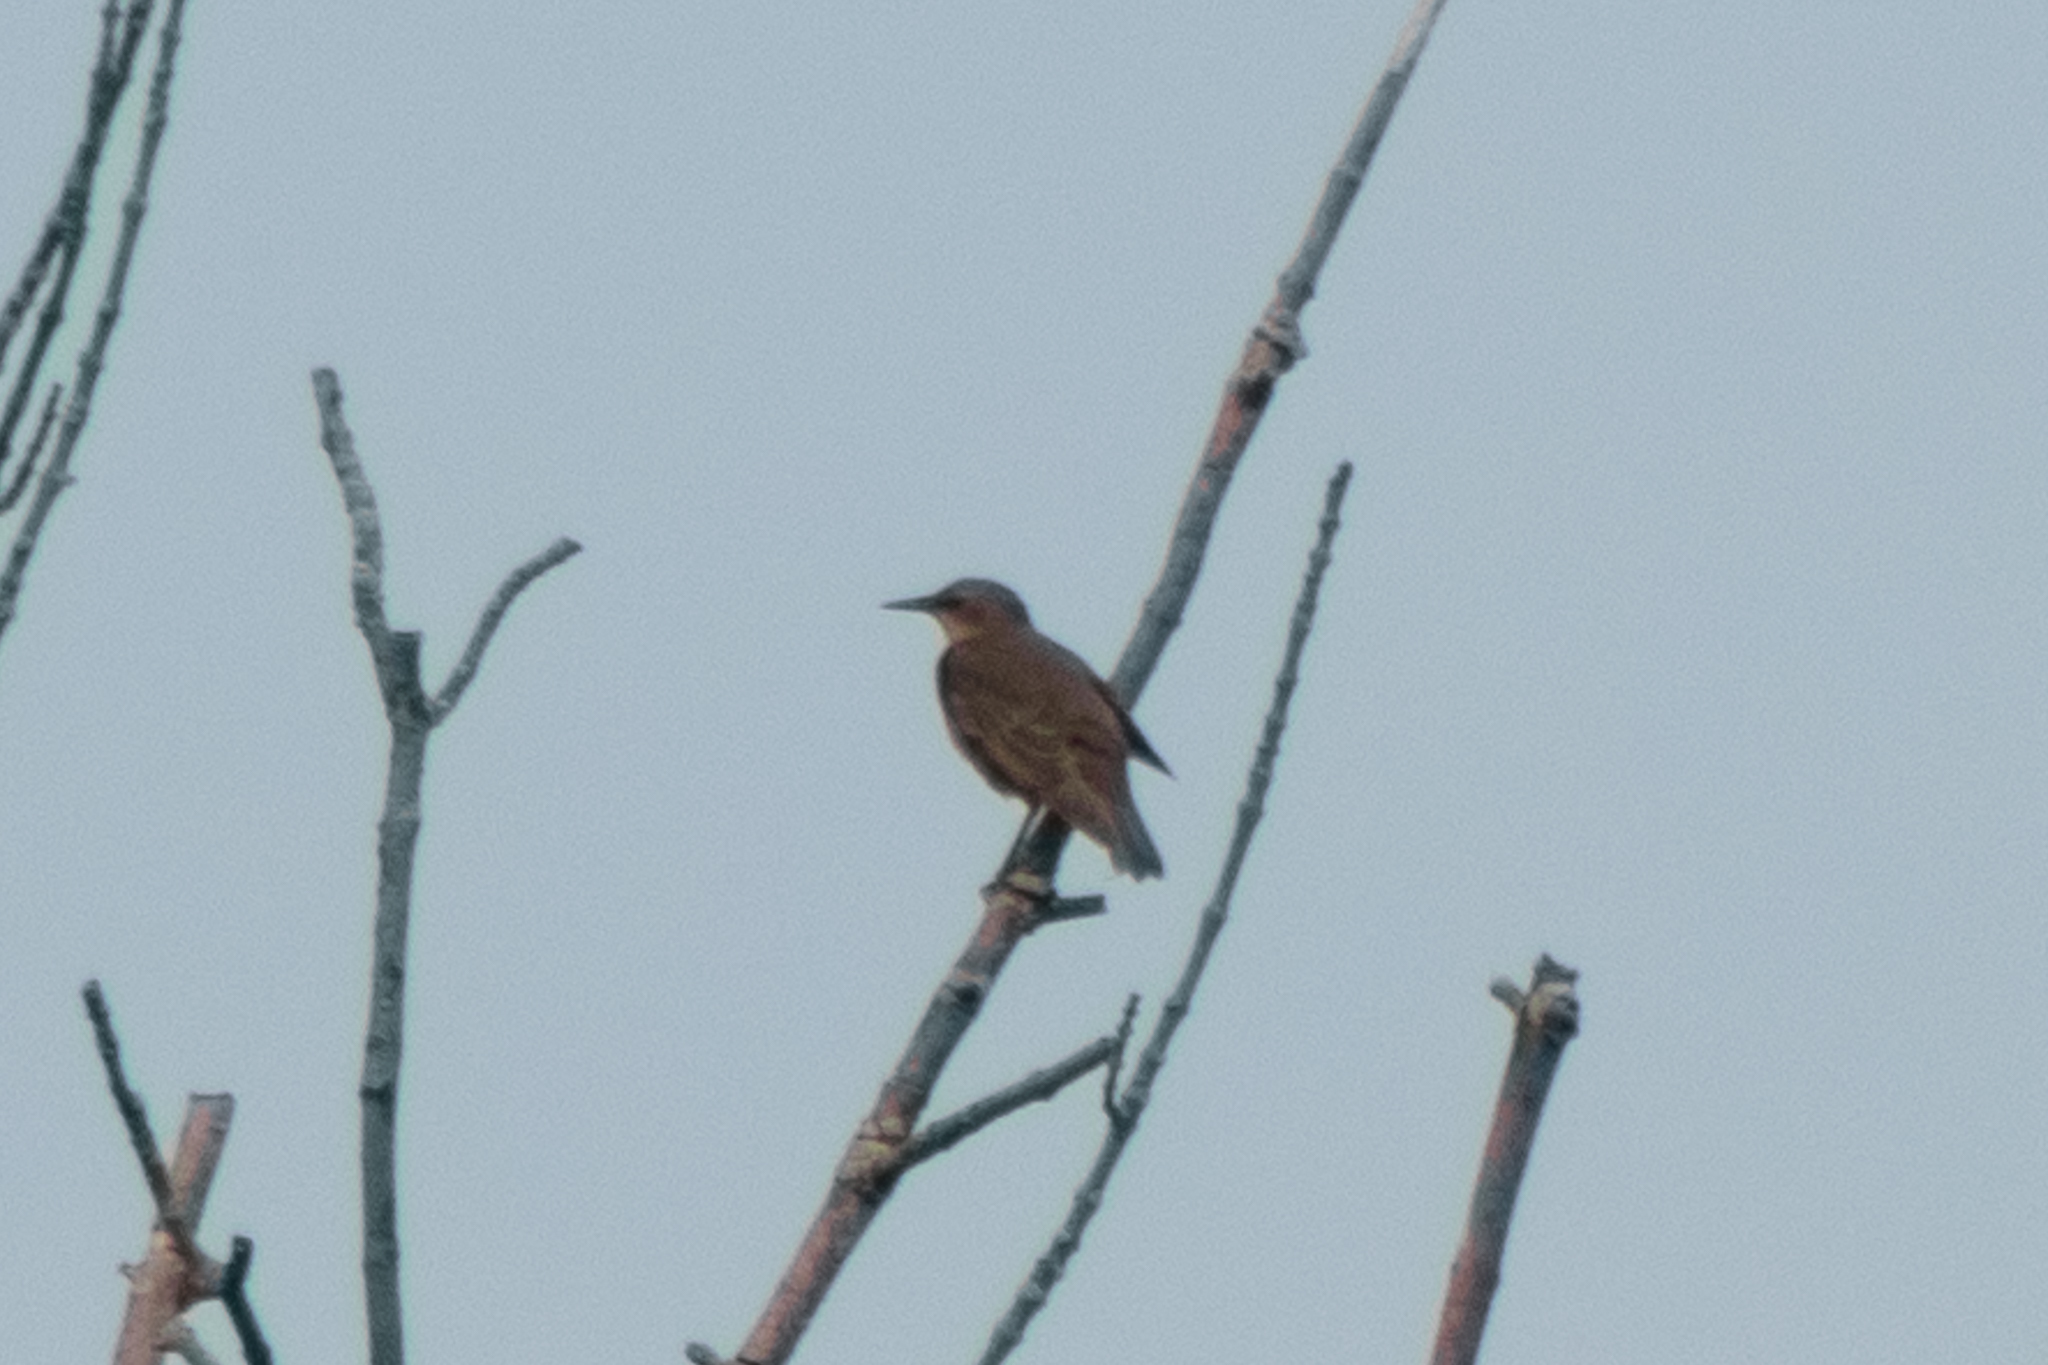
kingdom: Animalia
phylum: Chordata
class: Aves
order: Passeriformes
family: Sturnidae
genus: Sturnus
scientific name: Sturnus vulgaris
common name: Common starling
